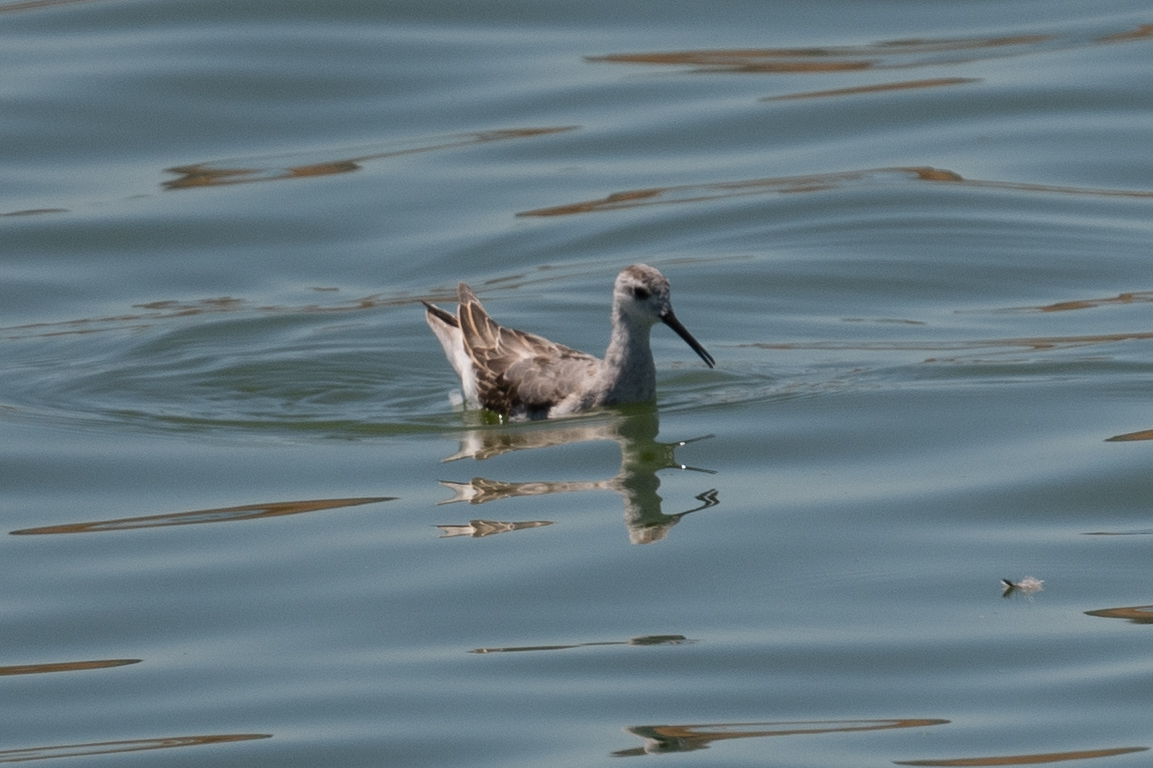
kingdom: Animalia
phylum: Chordata
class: Aves
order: Charadriiformes
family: Scolopacidae
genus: Phalaropus
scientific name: Phalaropus tricolor
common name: Wilson's phalarope
